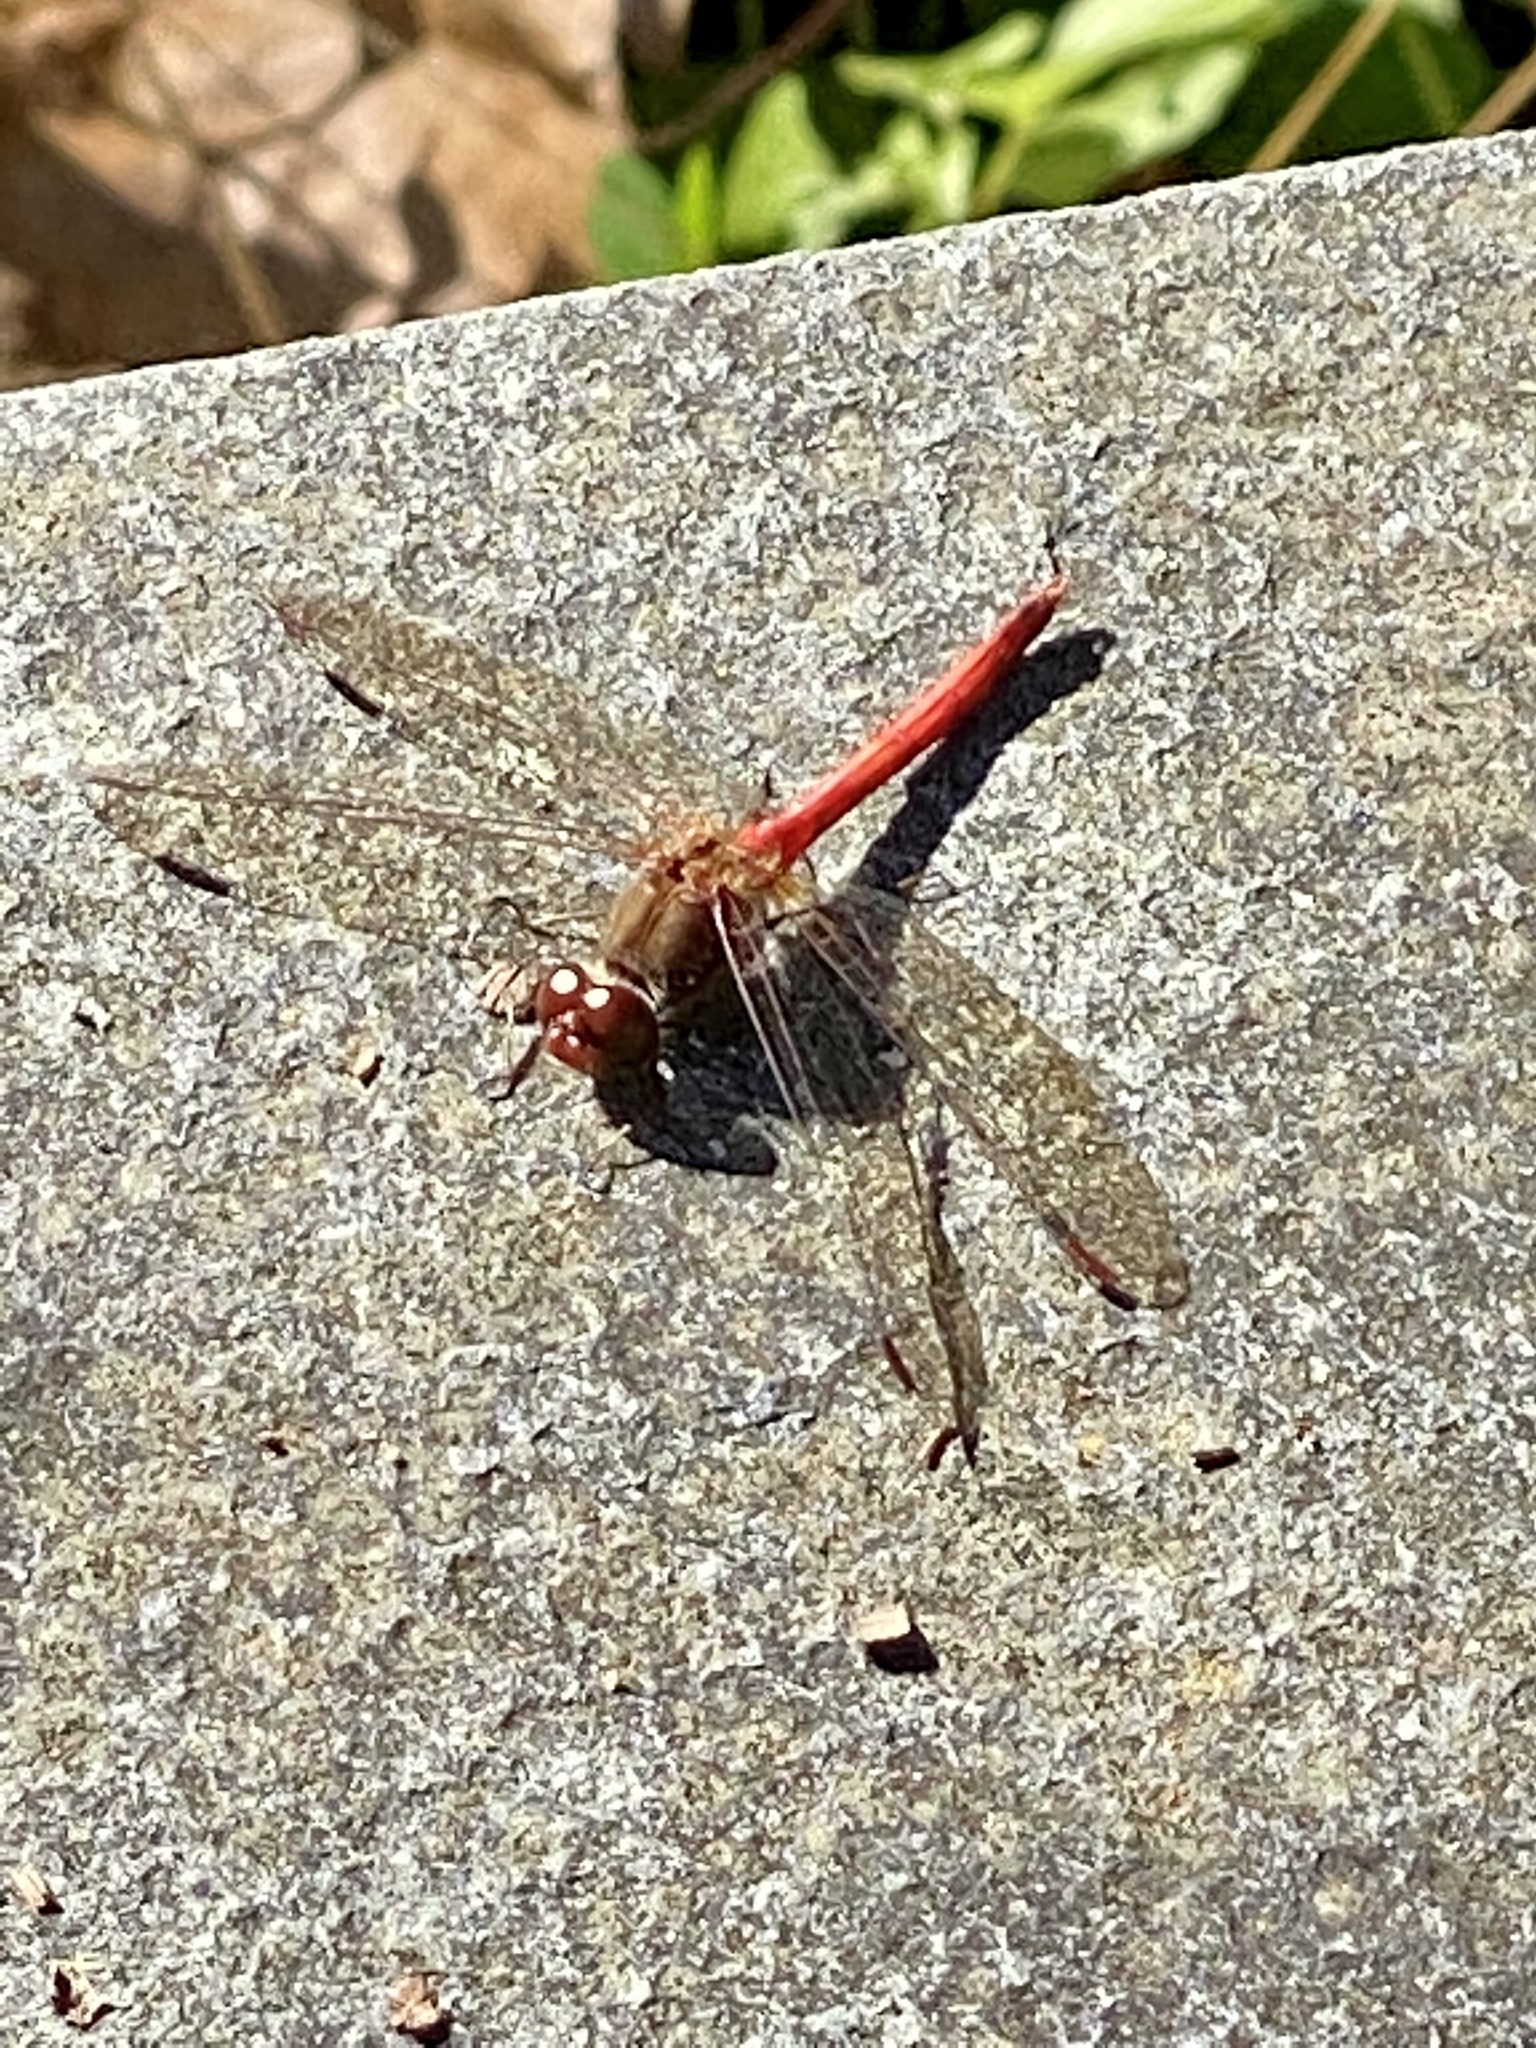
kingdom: Animalia
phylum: Arthropoda
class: Insecta
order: Odonata
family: Libellulidae
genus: Sympetrum
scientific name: Sympetrum vicinum
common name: Autumn meadowhawk
